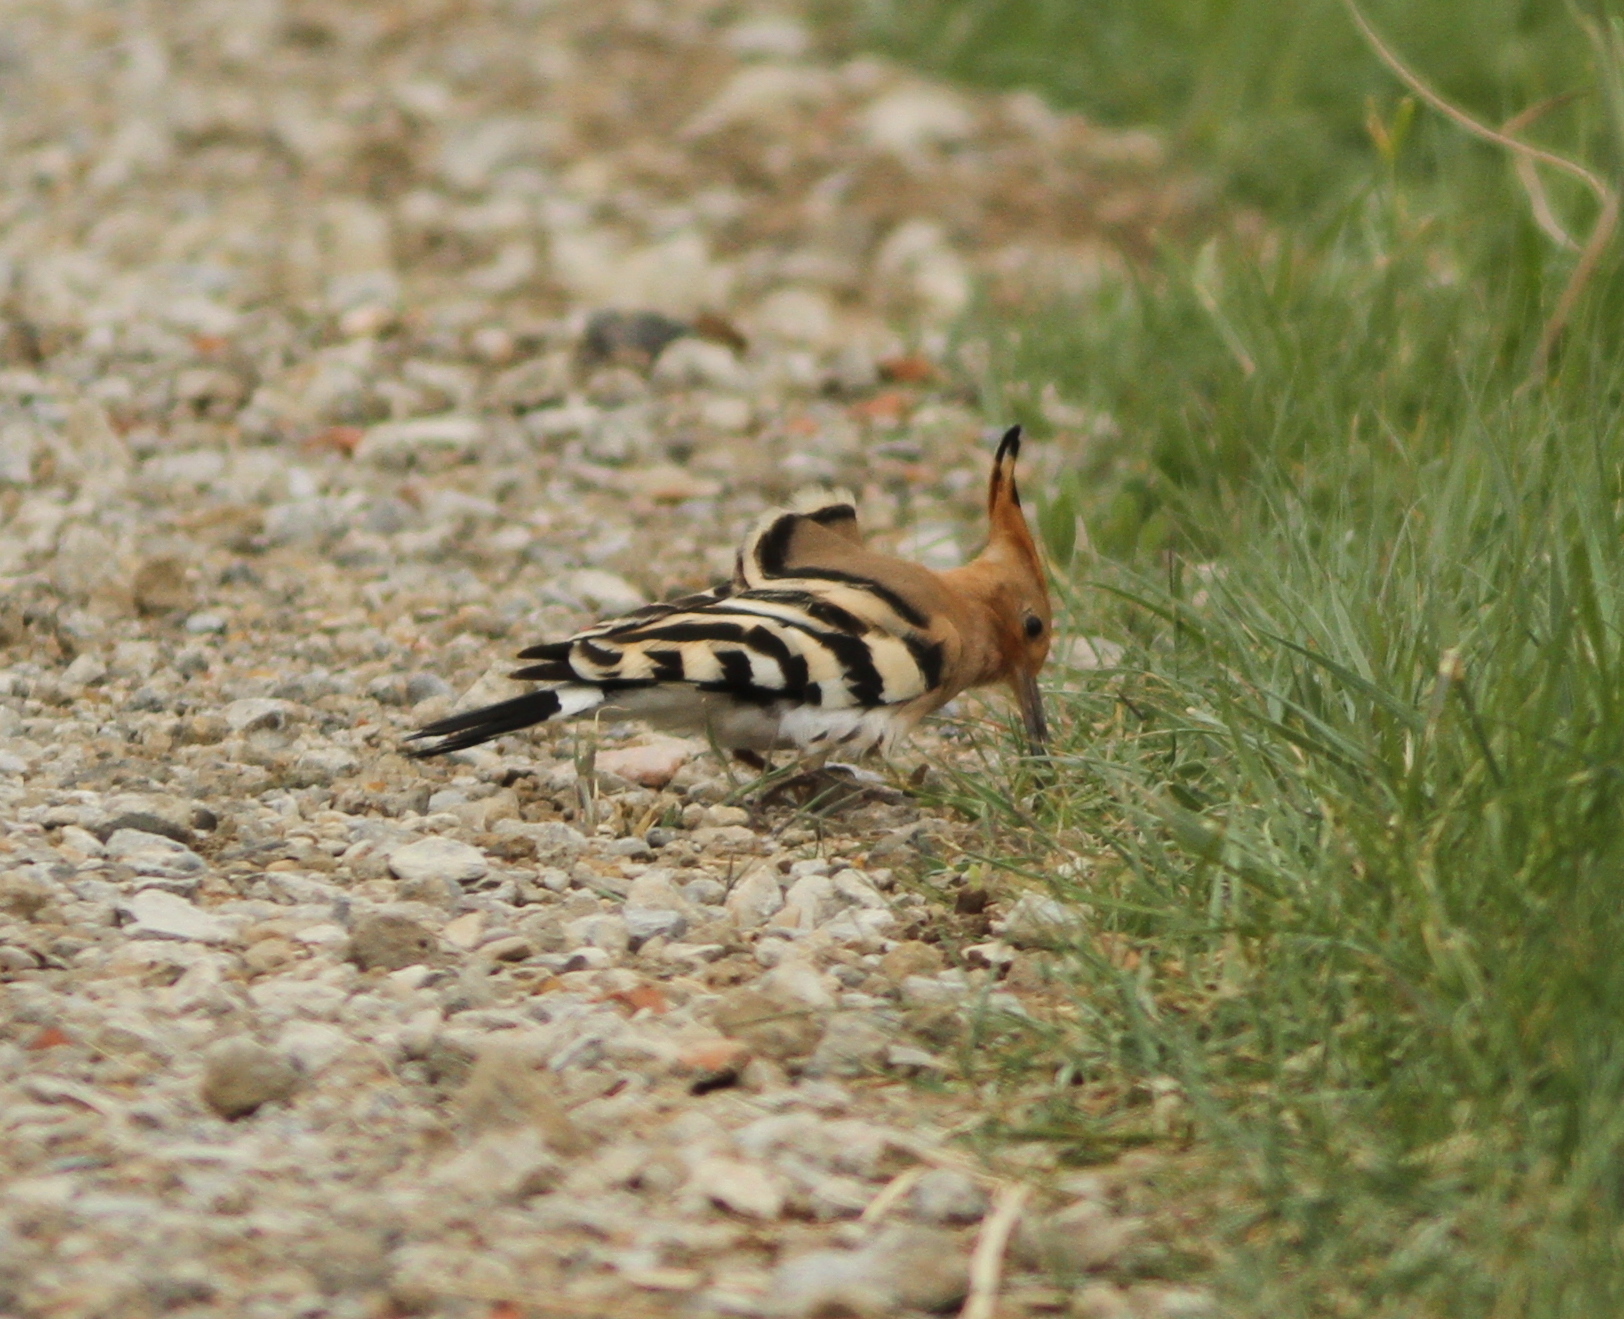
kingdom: Animalia
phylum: Chordata
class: Aves
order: Bucerotiformes
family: Upupidae
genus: Upupa
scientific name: Upupa epops
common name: Eurasian hoopoe
